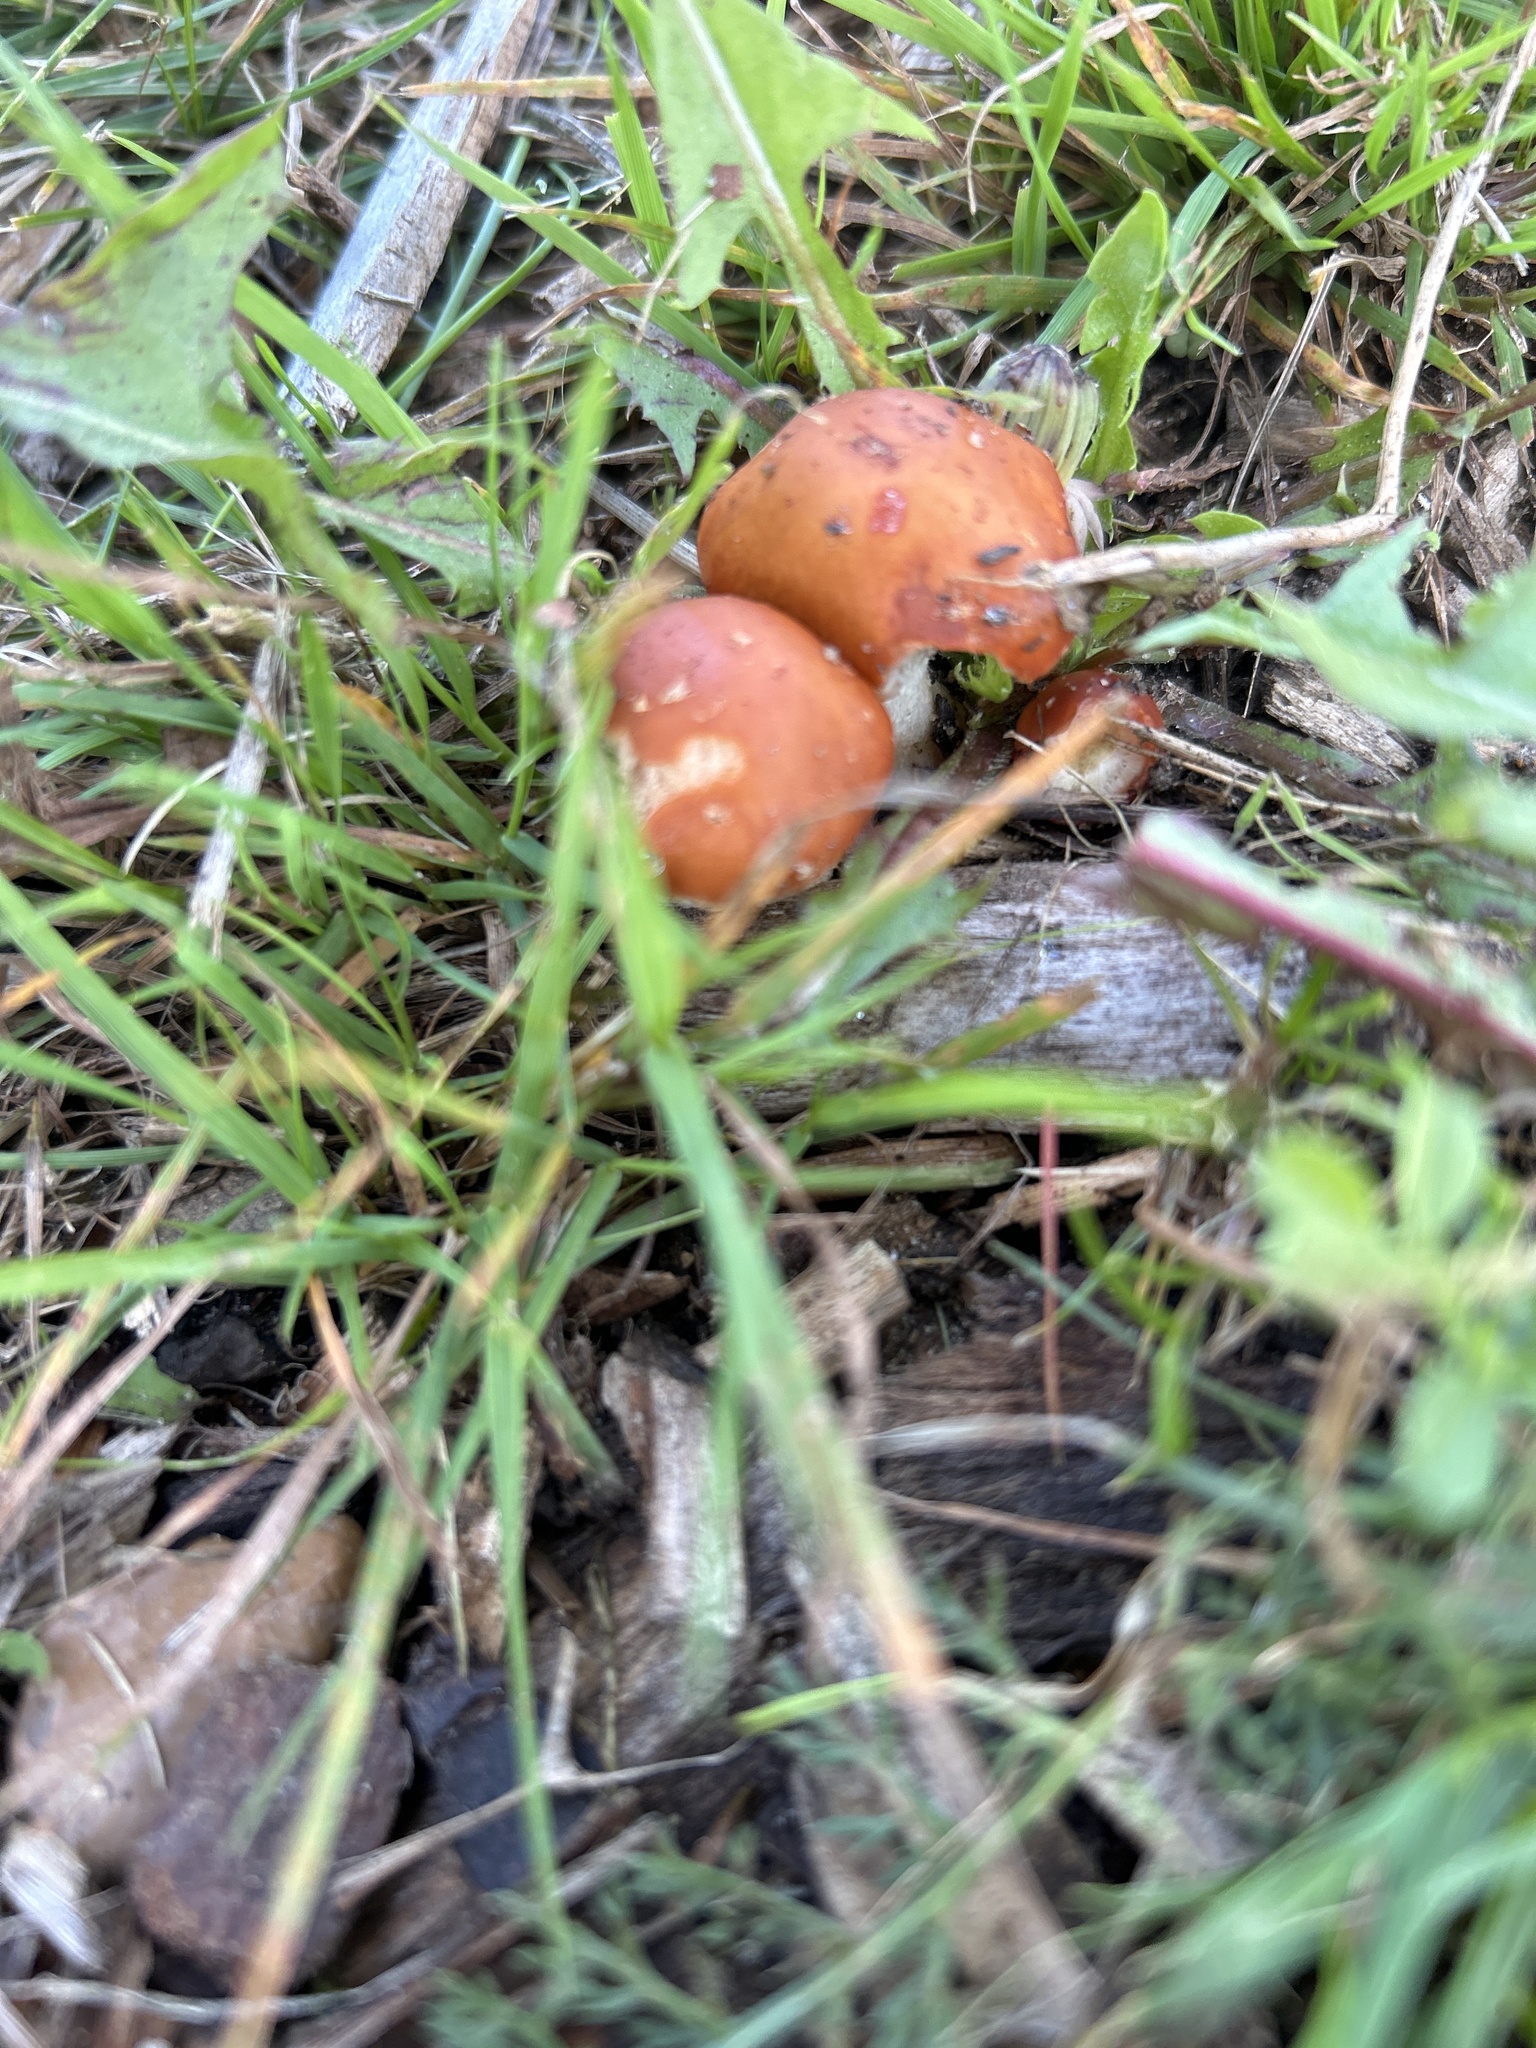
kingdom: Fungi
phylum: Basidiomycota
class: Agaricomycetes
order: Agaricales
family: Strophariaceae
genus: Leratiomyces
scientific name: Leratiomyces ceres
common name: Redlead roundhead
